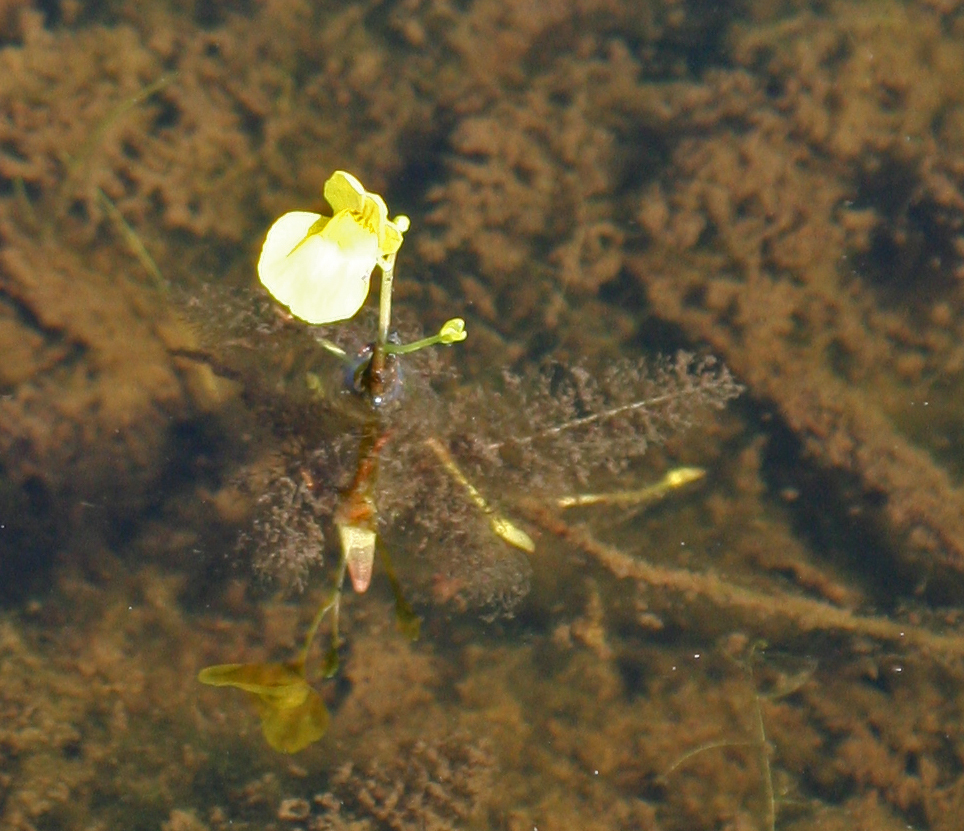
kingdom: Plantae
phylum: Tracheophyta
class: Magnoliopsida
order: Lamiales
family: Lentibulariaceae
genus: Utricularia
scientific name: Utricularia aurea
